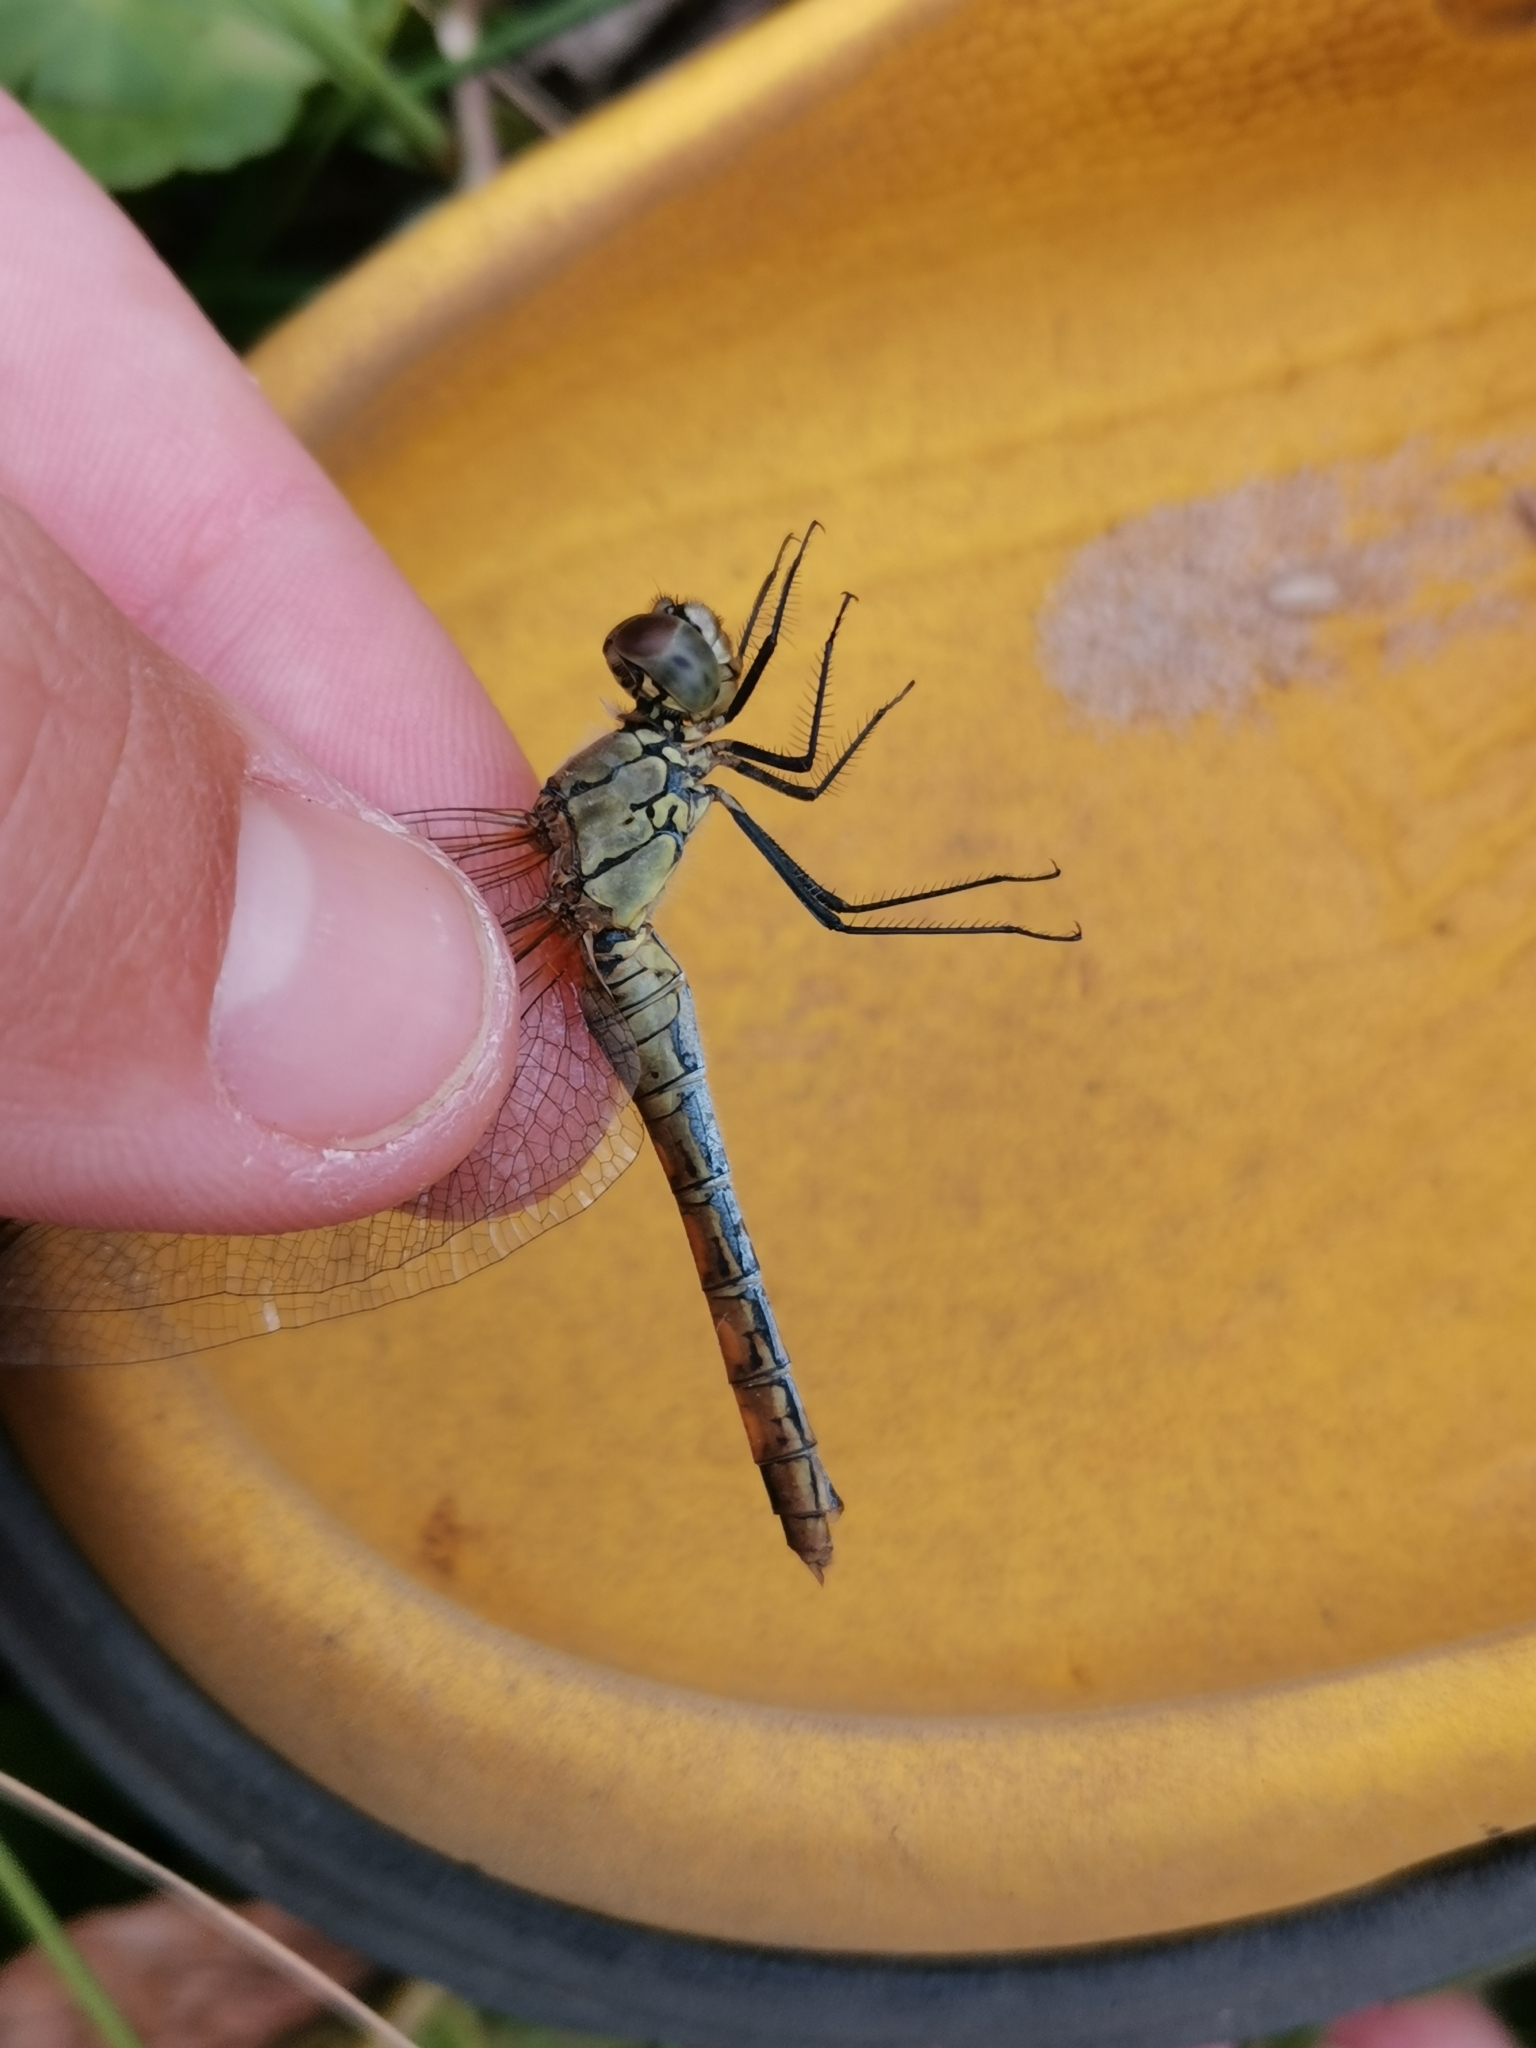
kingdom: Animalia
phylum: Arthropoda
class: Insecta
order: Odonata
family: Libellulidae
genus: Sympetrum
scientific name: Sympetrum sanguineum
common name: Ruddy darter
